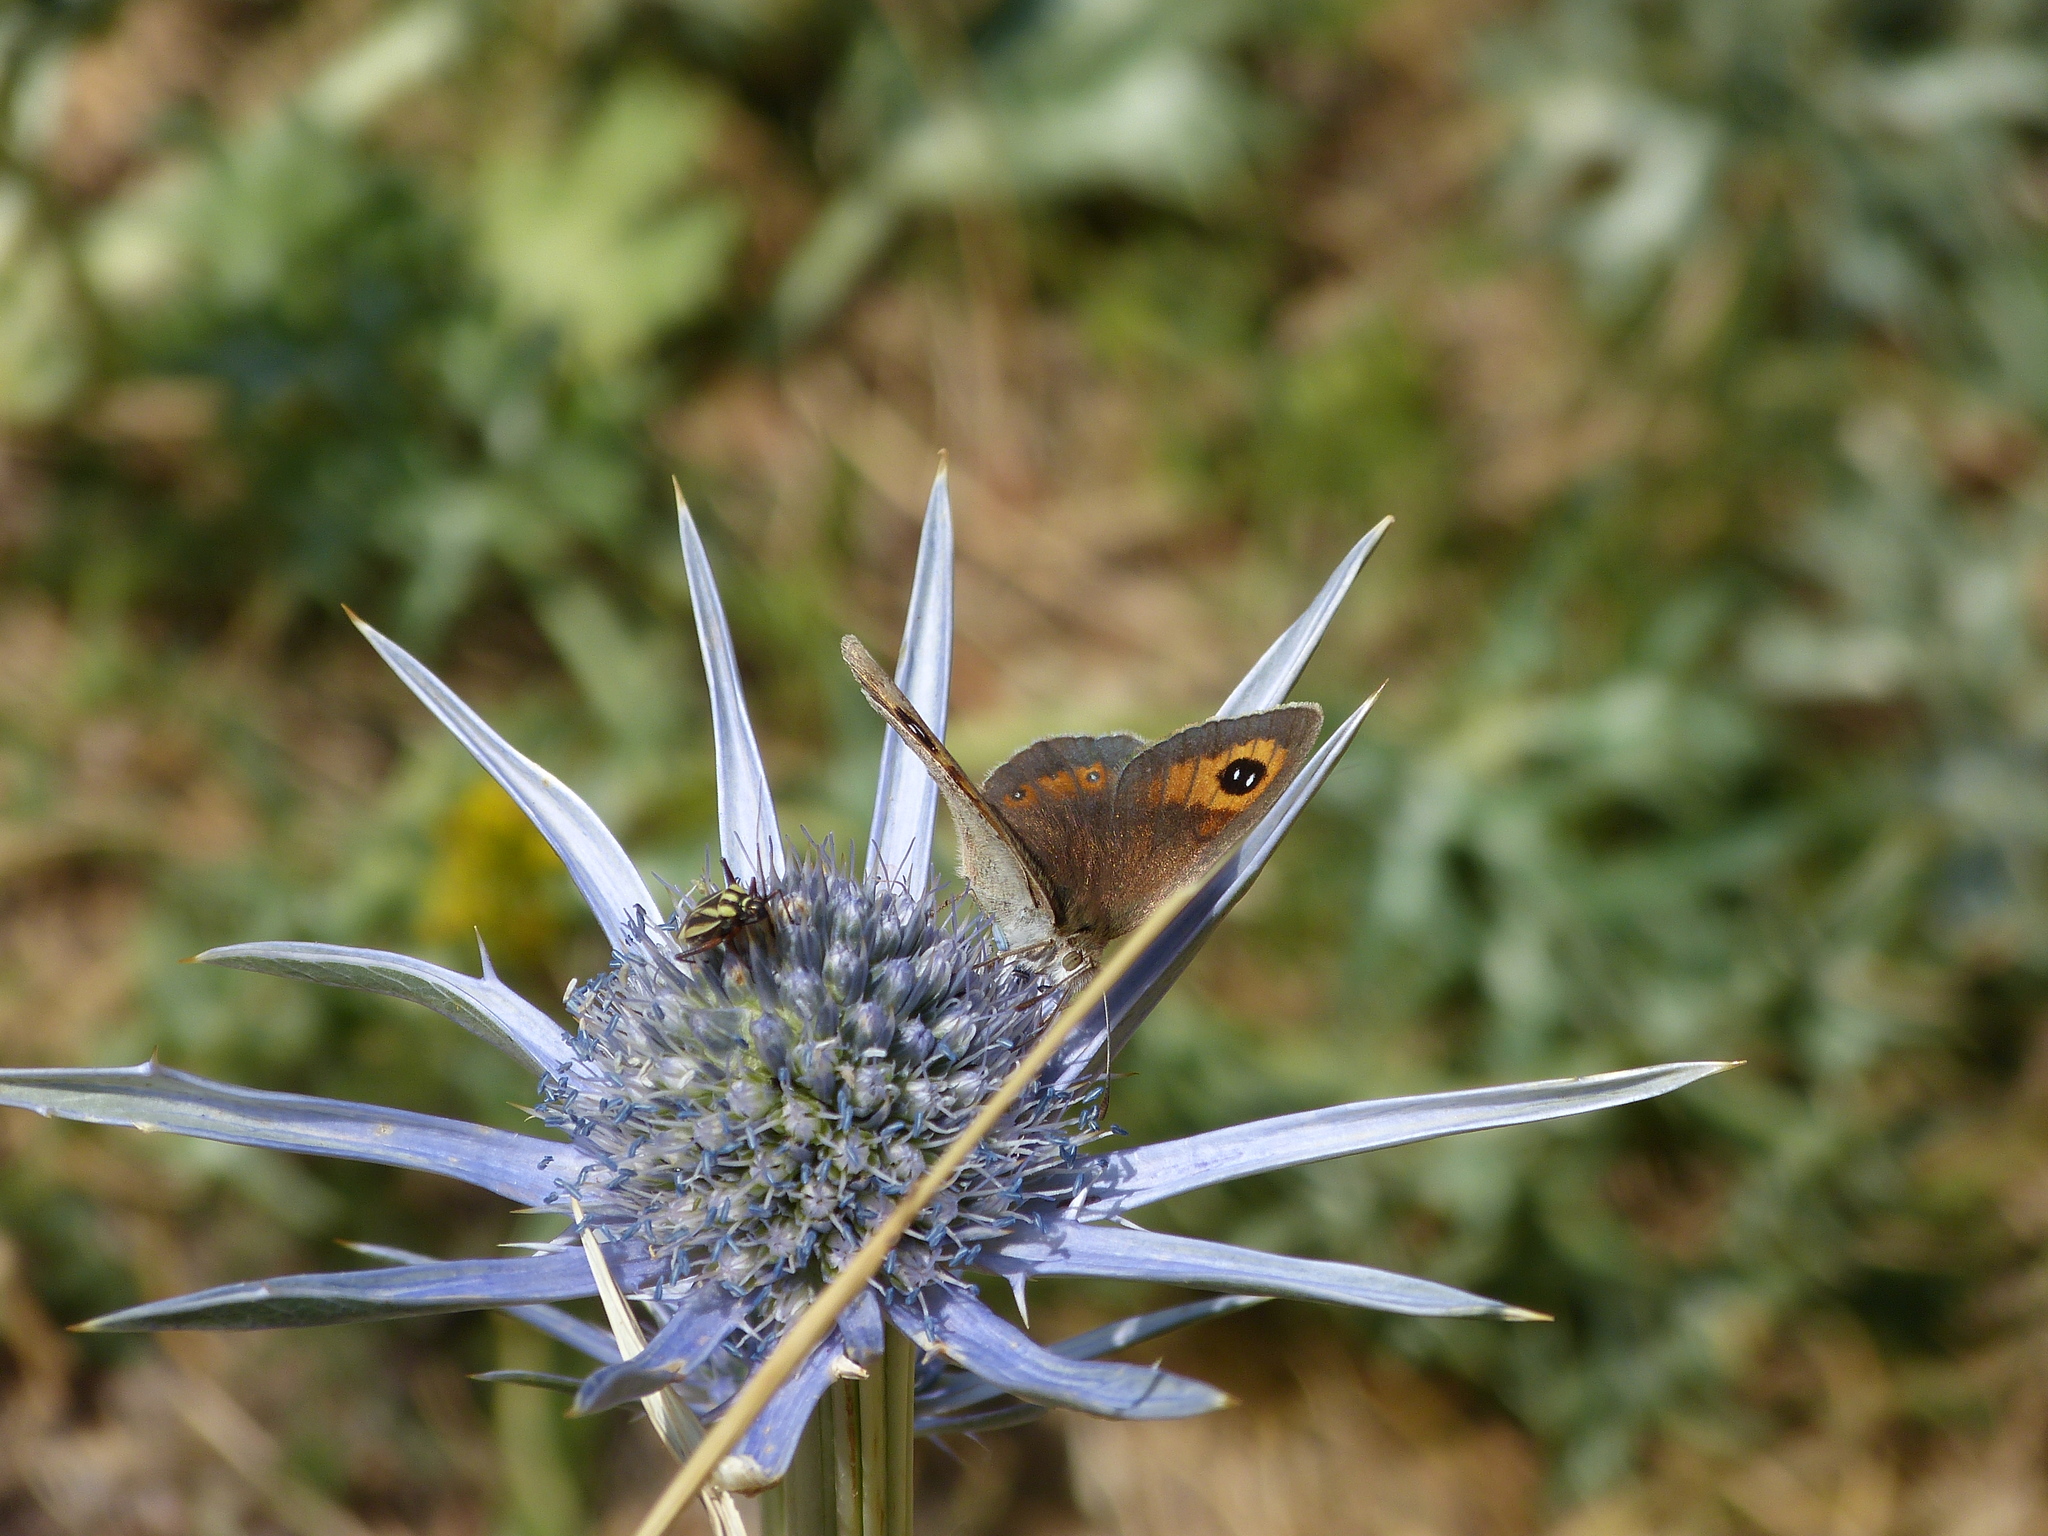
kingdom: Animalia
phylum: Arthropoda
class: Insecta
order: Lepidoptera
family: Nymphalidae
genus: Erebia
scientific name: Erebia tyndarus
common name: Swiss brassy ringlet
